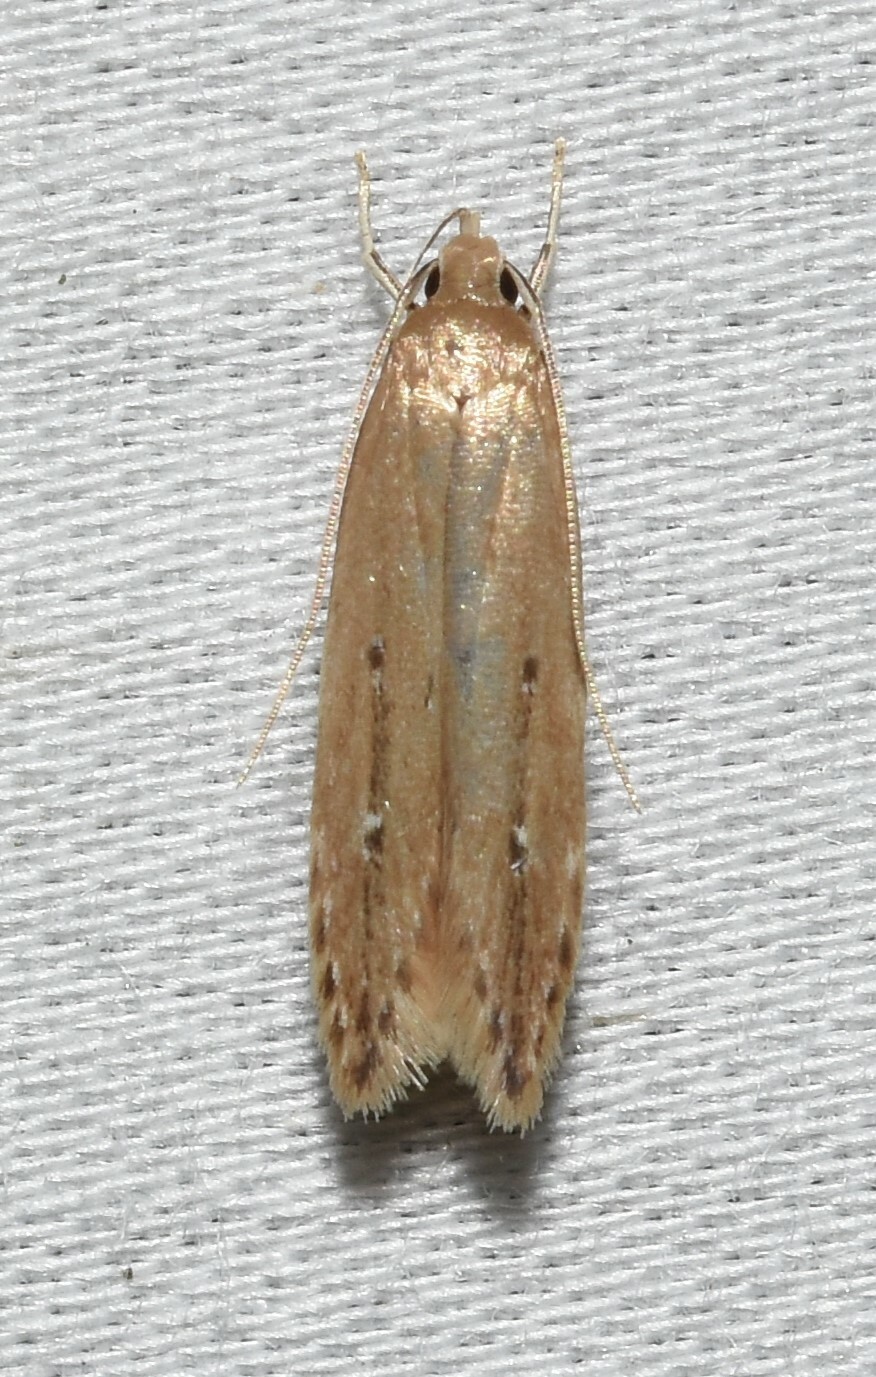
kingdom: Animalia
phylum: Arthropoda
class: Insecta
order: Lepidoptera
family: Cosmopterigidae
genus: Limnaecia
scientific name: Limnaecia phragmitella
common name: Bulrush cosmet
